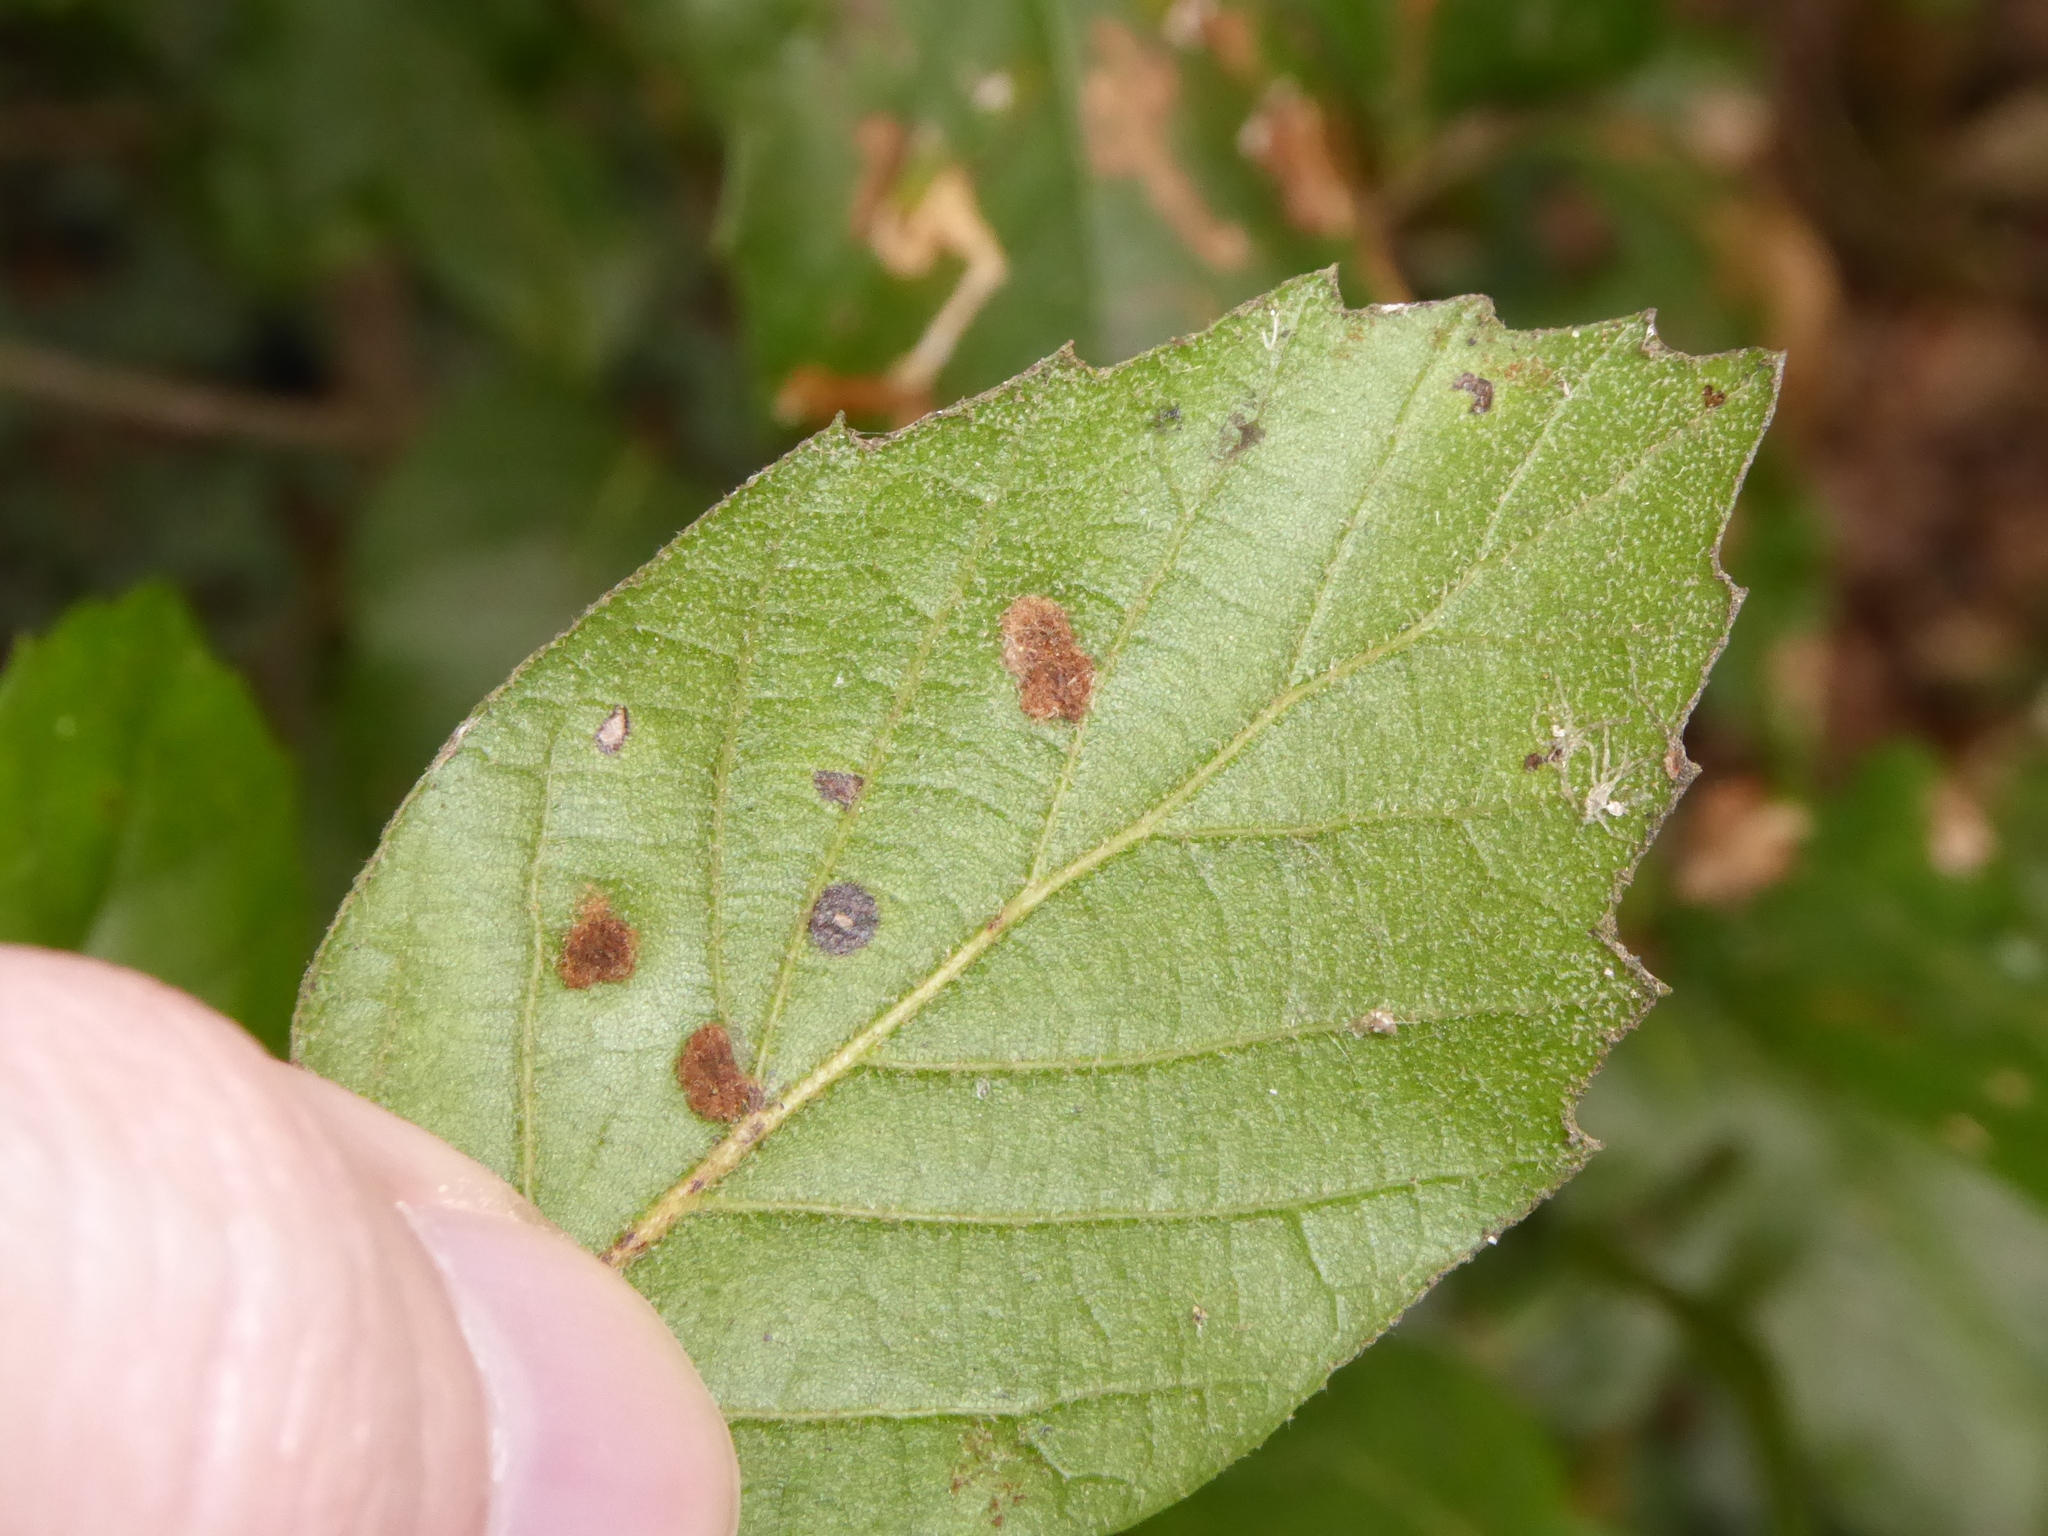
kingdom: Animalia
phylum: Arthropoda
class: Arachnida
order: Trombidiformes
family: Eriophyidae
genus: Aceria
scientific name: Aceria ilicis
